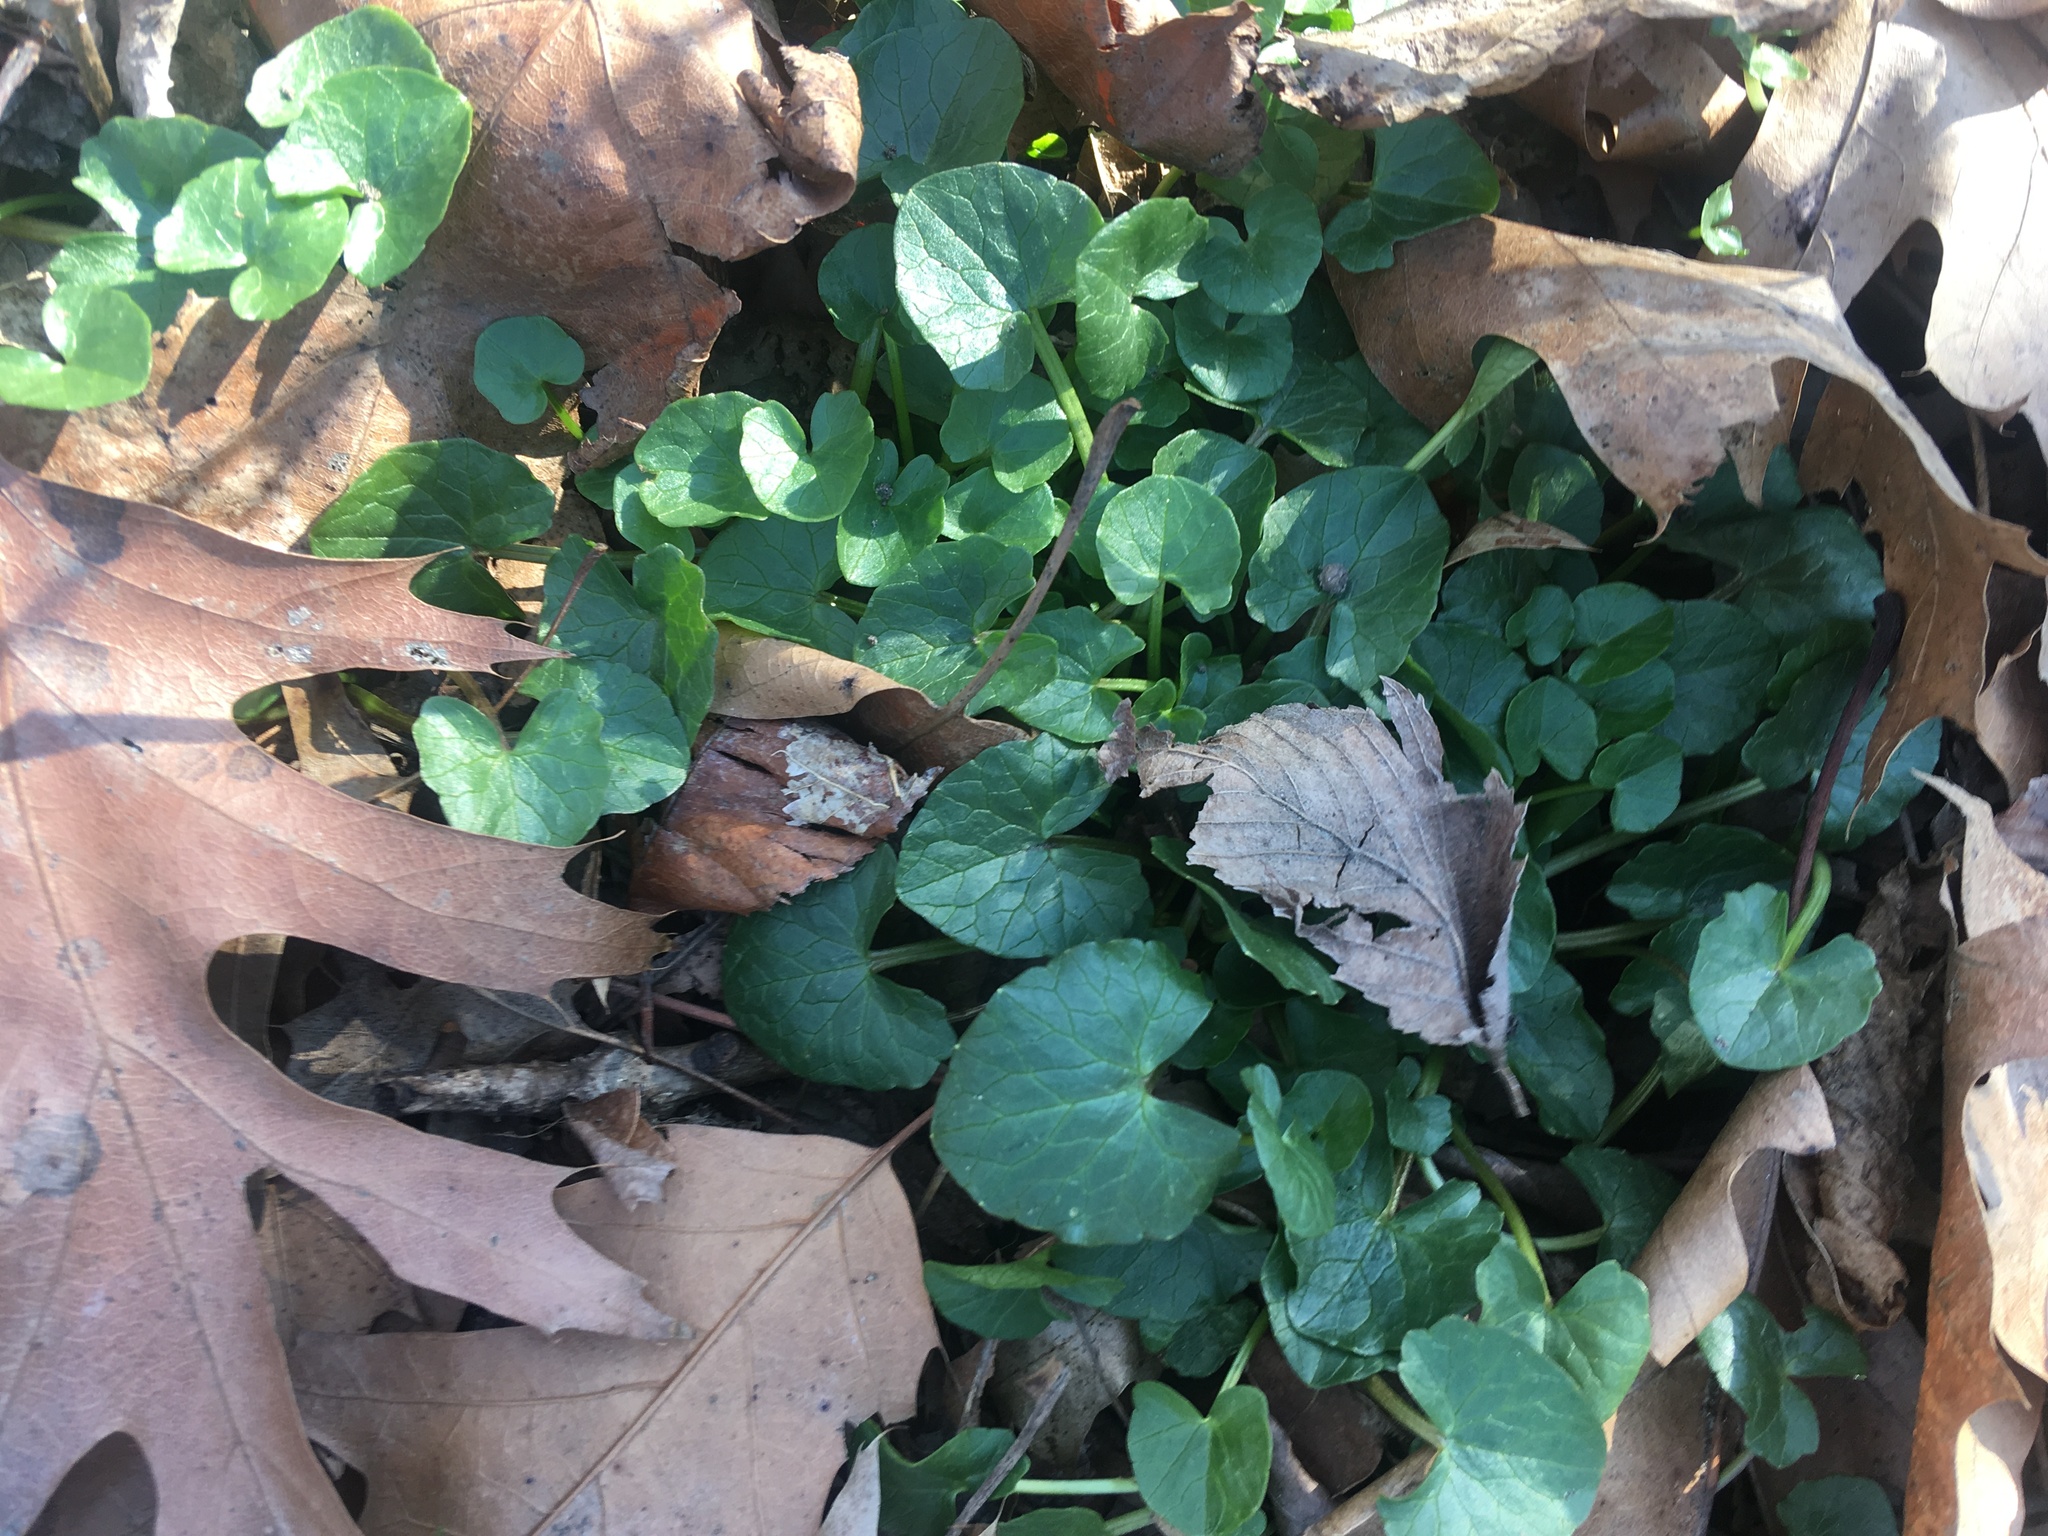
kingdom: Plantae
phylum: Tracheophyta
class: Magnoliopsida
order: Ranunculales
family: Ranunculaceae
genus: Ficaria
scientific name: Ficaria verna
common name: Lesser celandine
